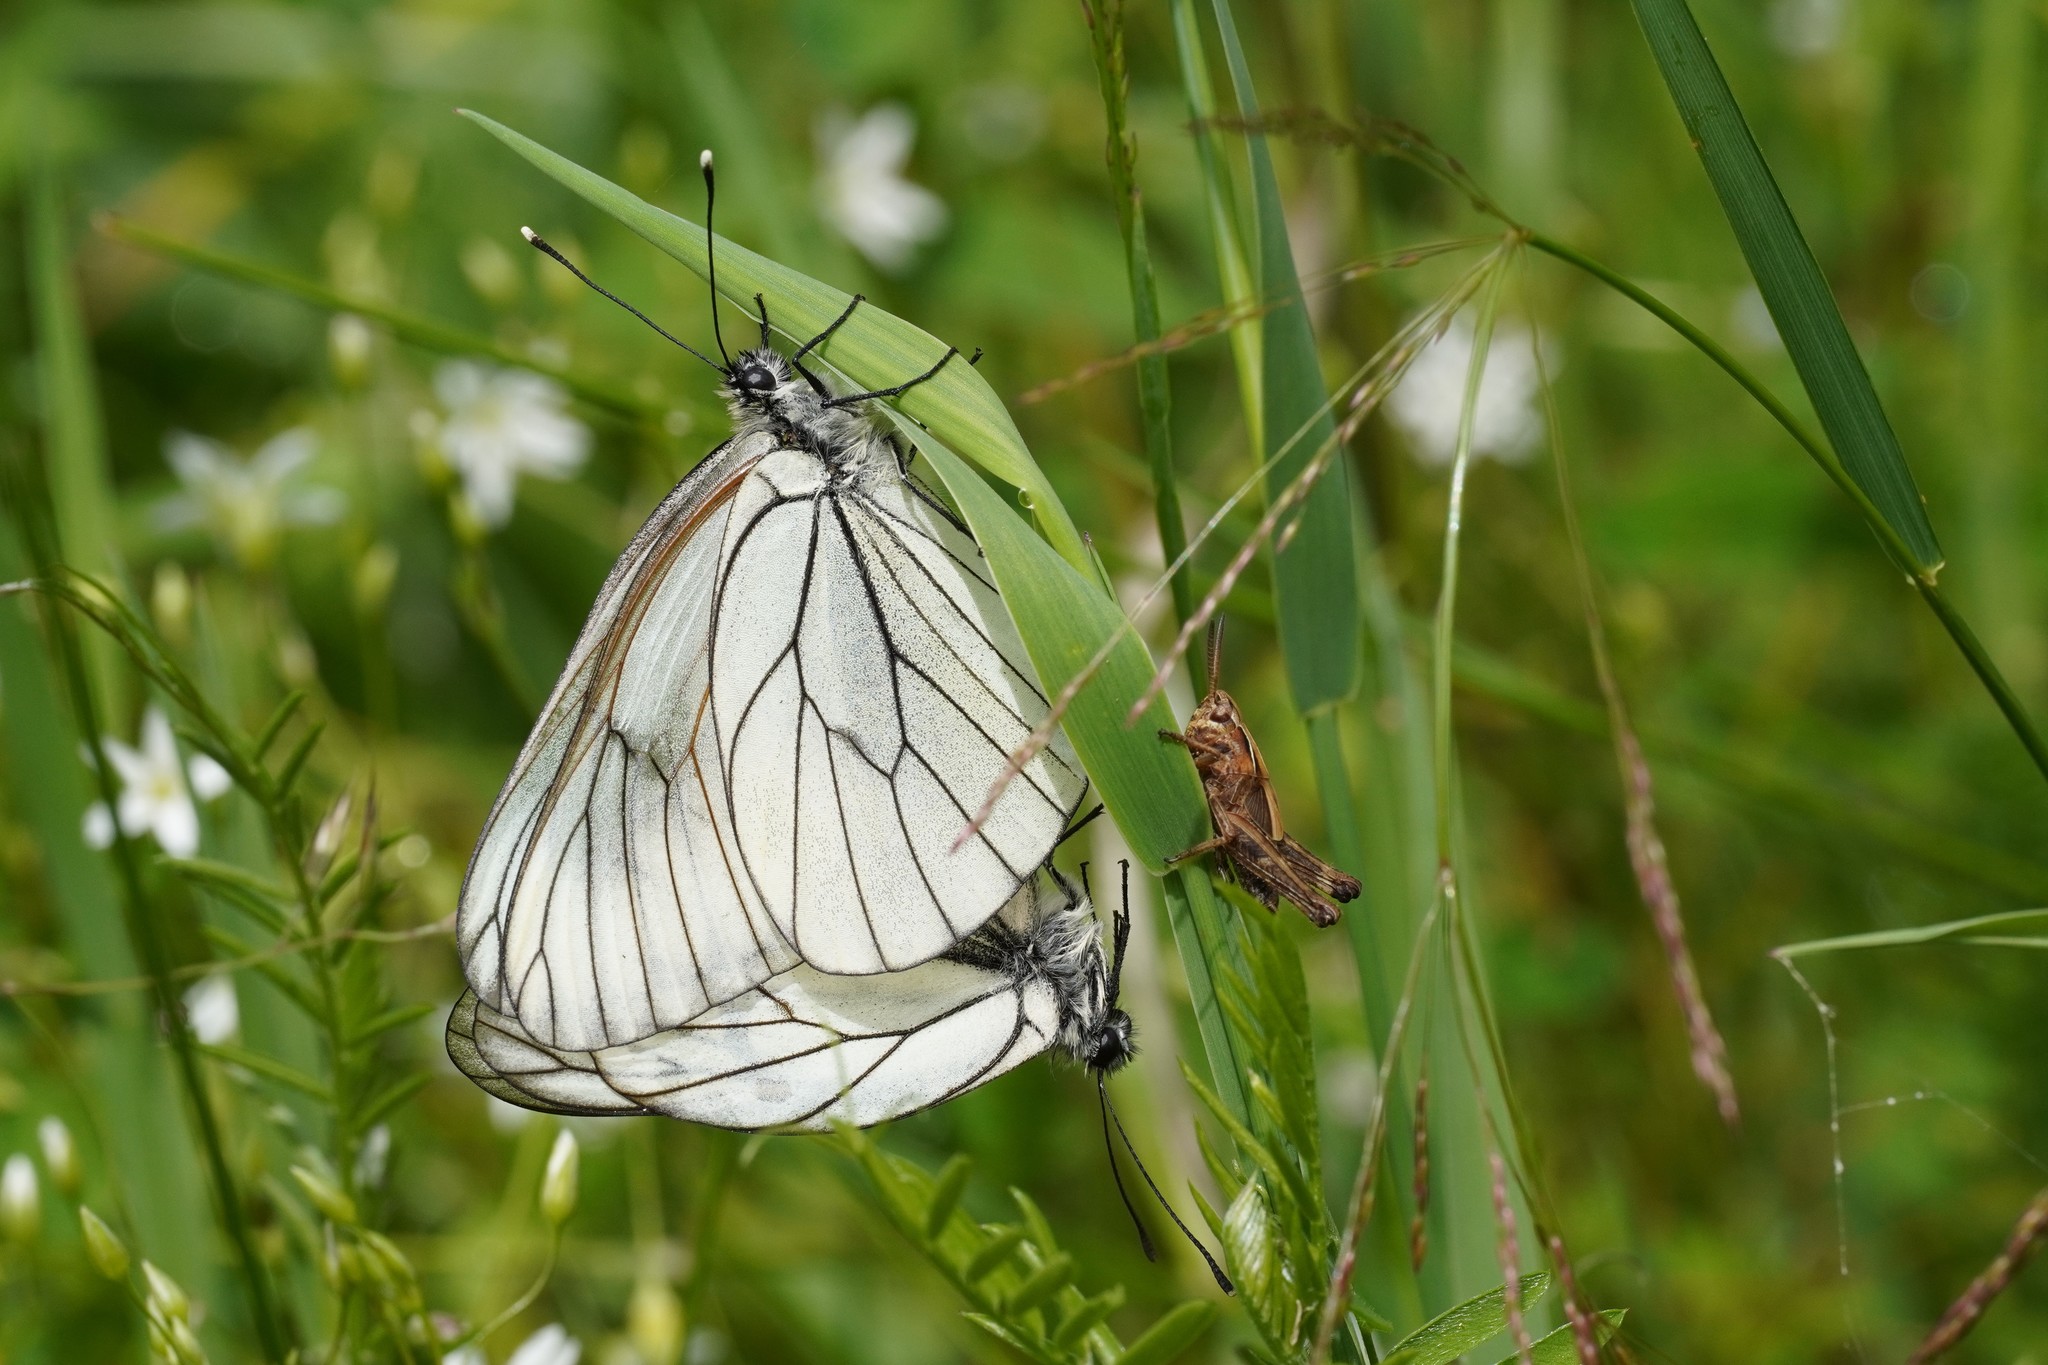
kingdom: Animalia
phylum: Arthropoda
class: Insecta
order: Lepidoptera
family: Pieridae
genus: Aporia
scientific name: Aporia crataegi
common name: Black-veined white
